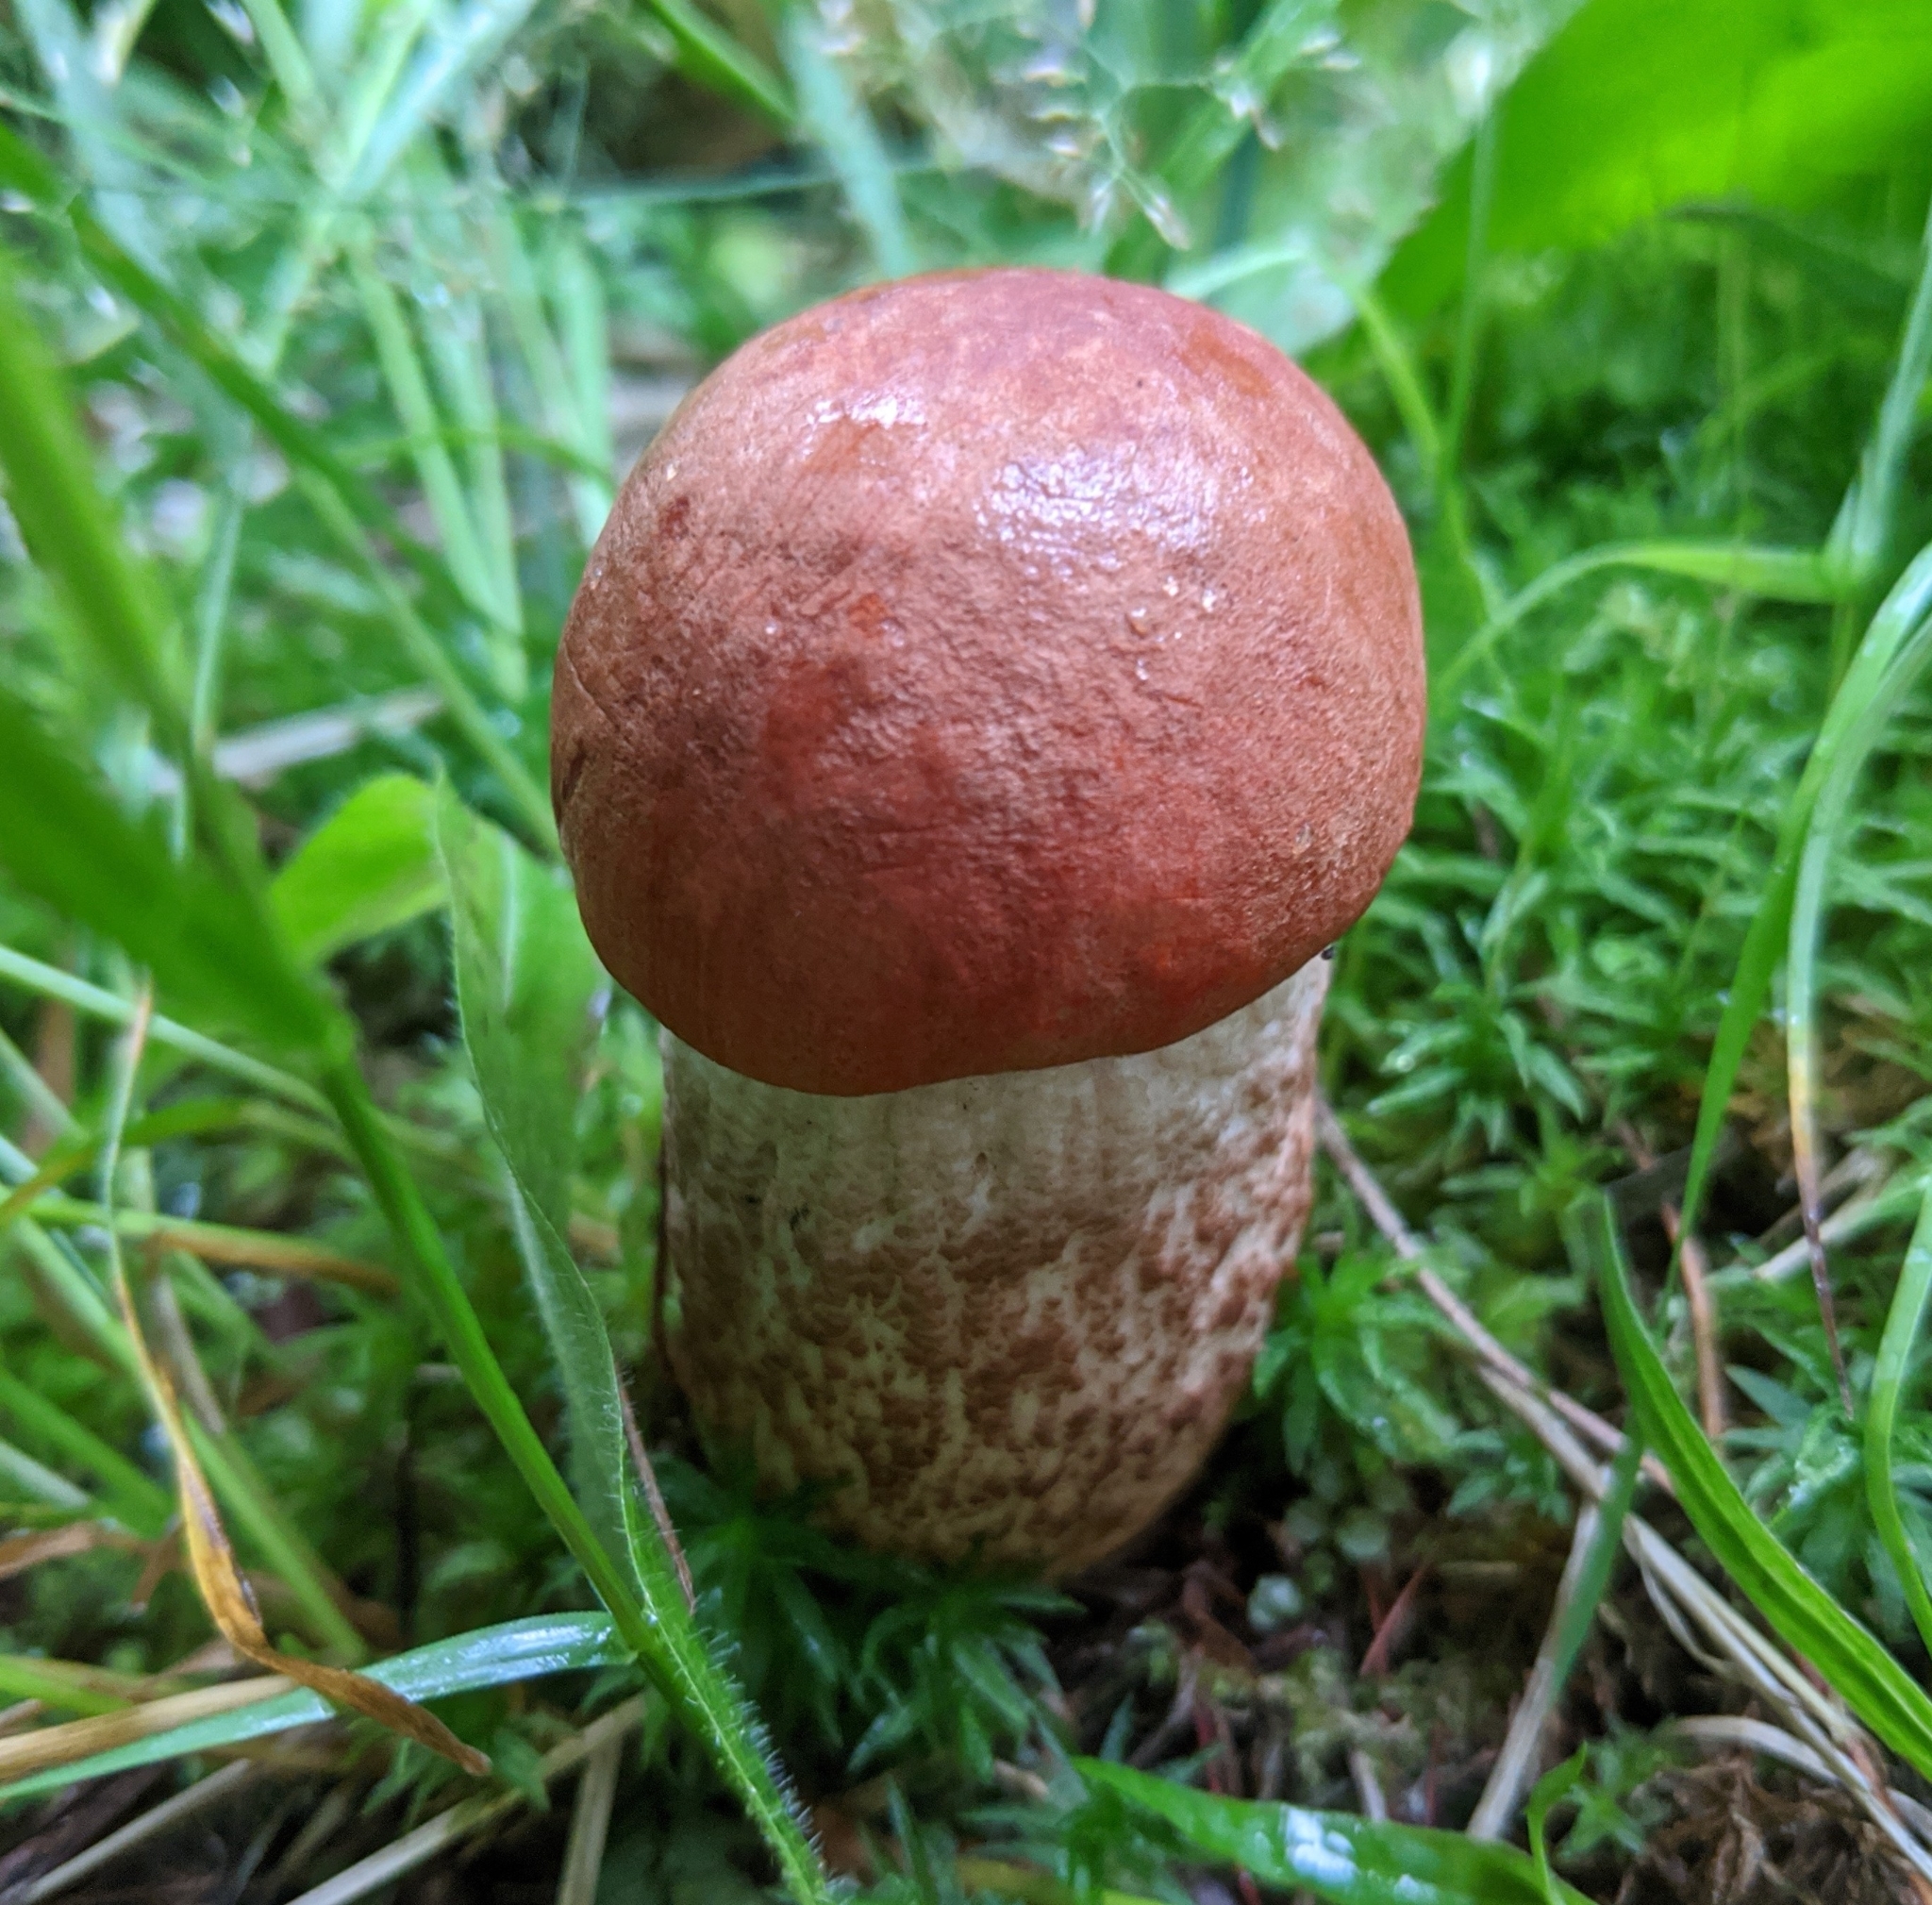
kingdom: Fungi
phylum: Basidiomycota
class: Agaricomycetes
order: Boletales
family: Boletaceae
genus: Leccinum
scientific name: Leccinum aurantiacum
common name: Orange bolete
